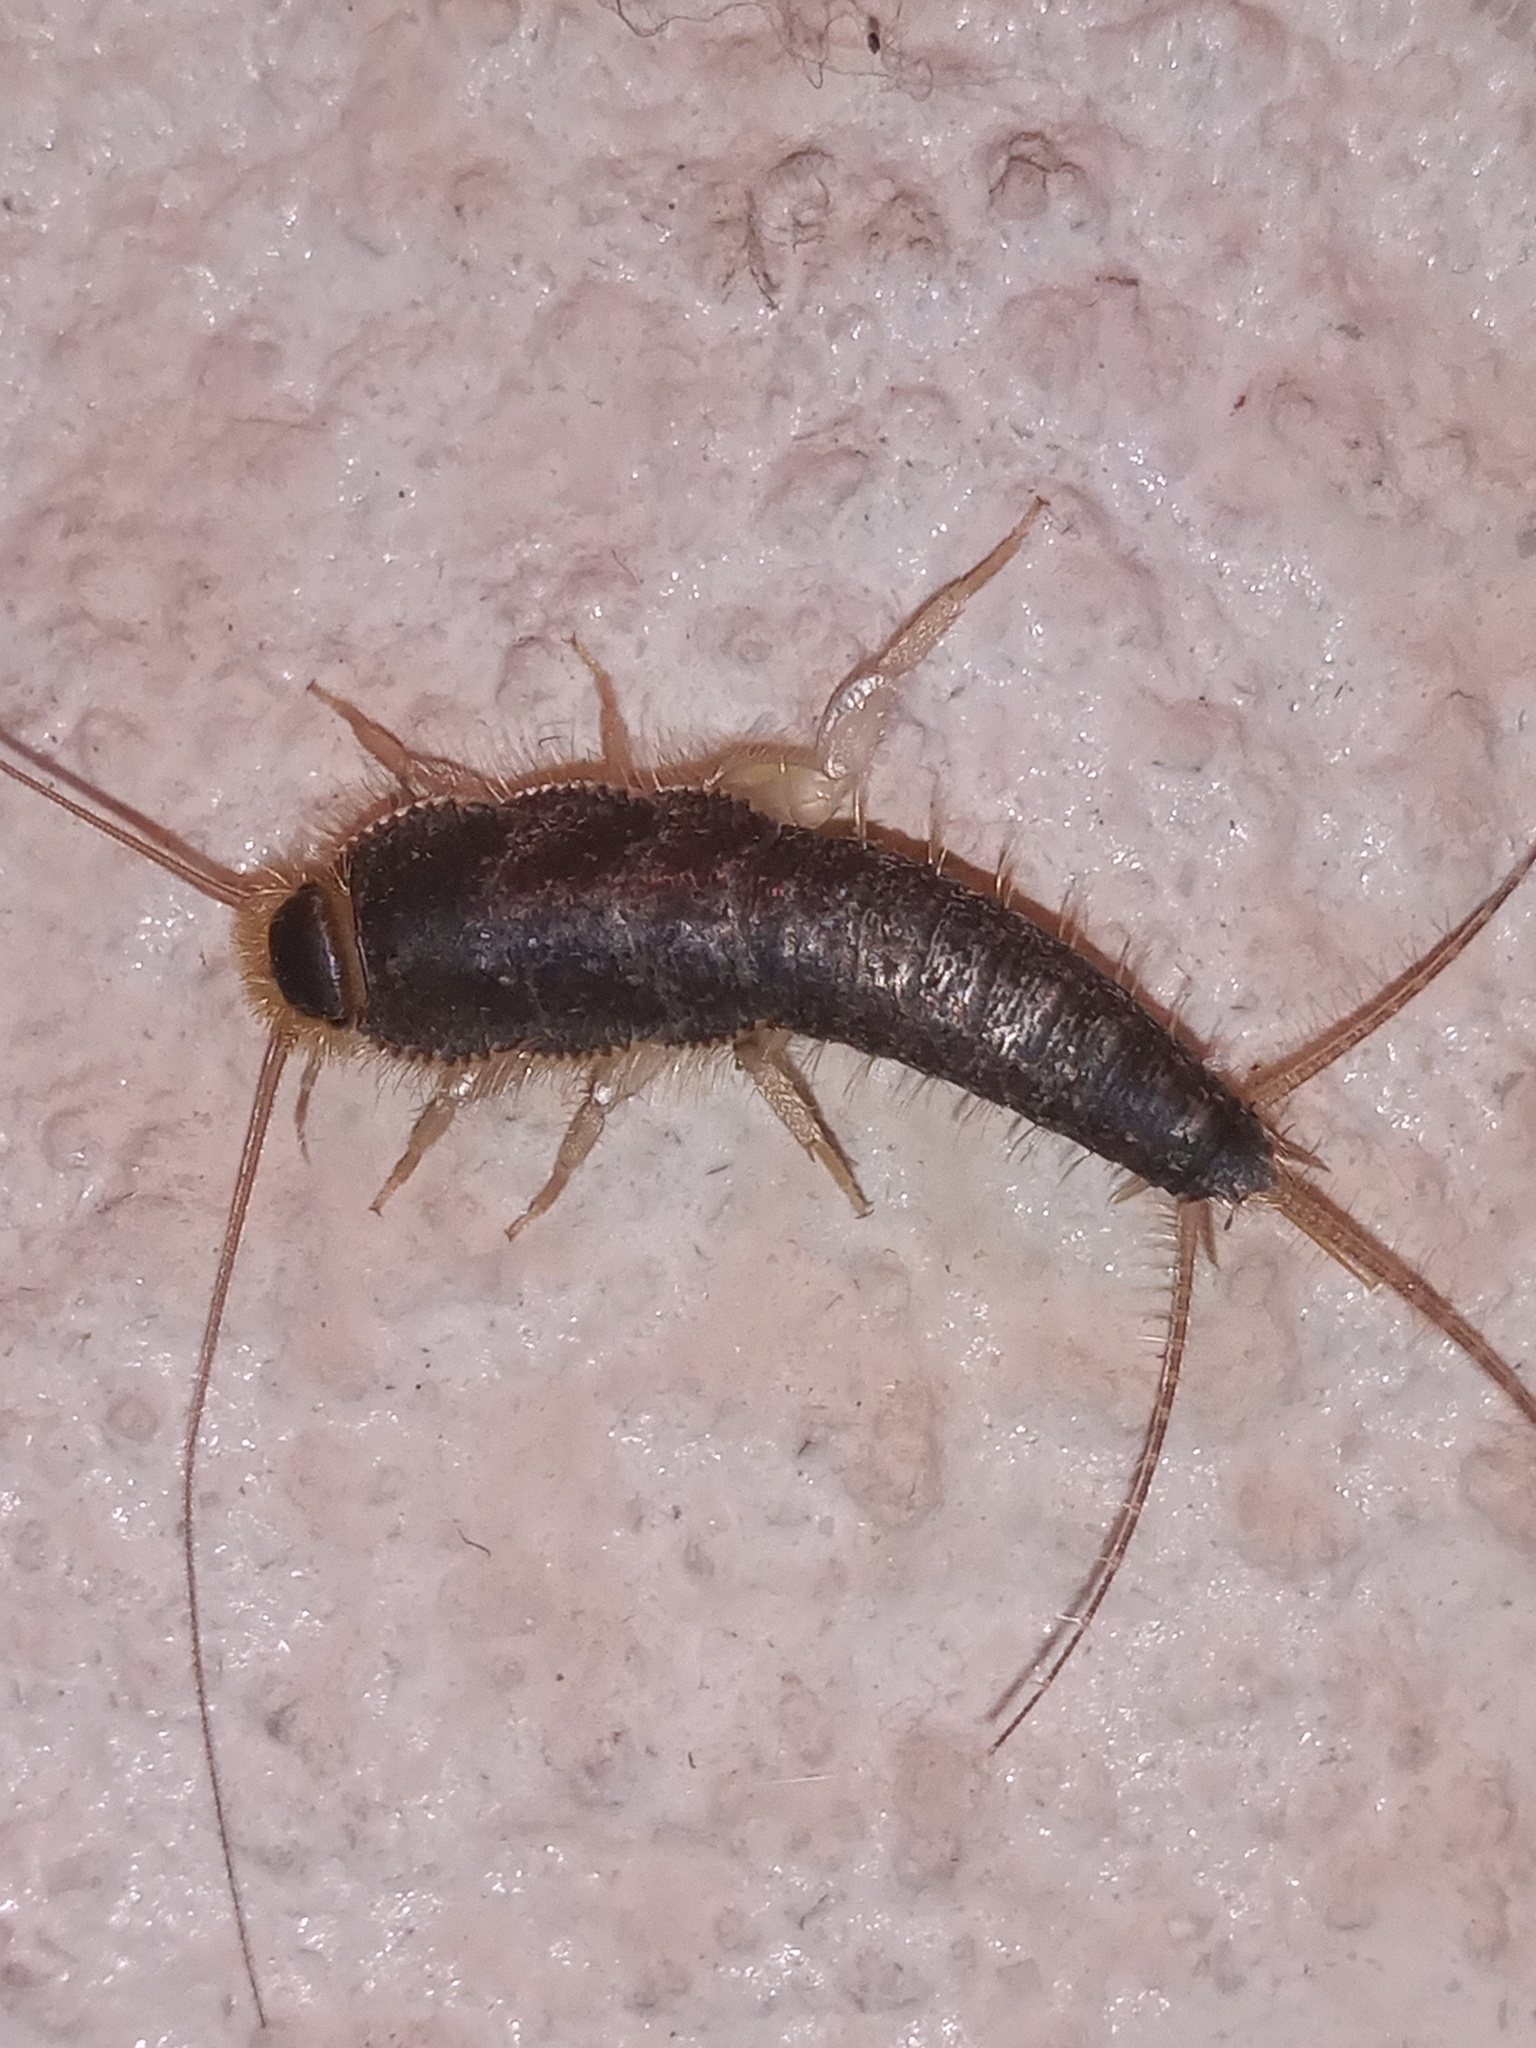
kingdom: Animalia
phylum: Arthropoda
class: Insecta
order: Zygentoma
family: Lepismatidae
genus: Ctenolepisma
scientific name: Ctenolepisma longicaudatum
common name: Silverfish
